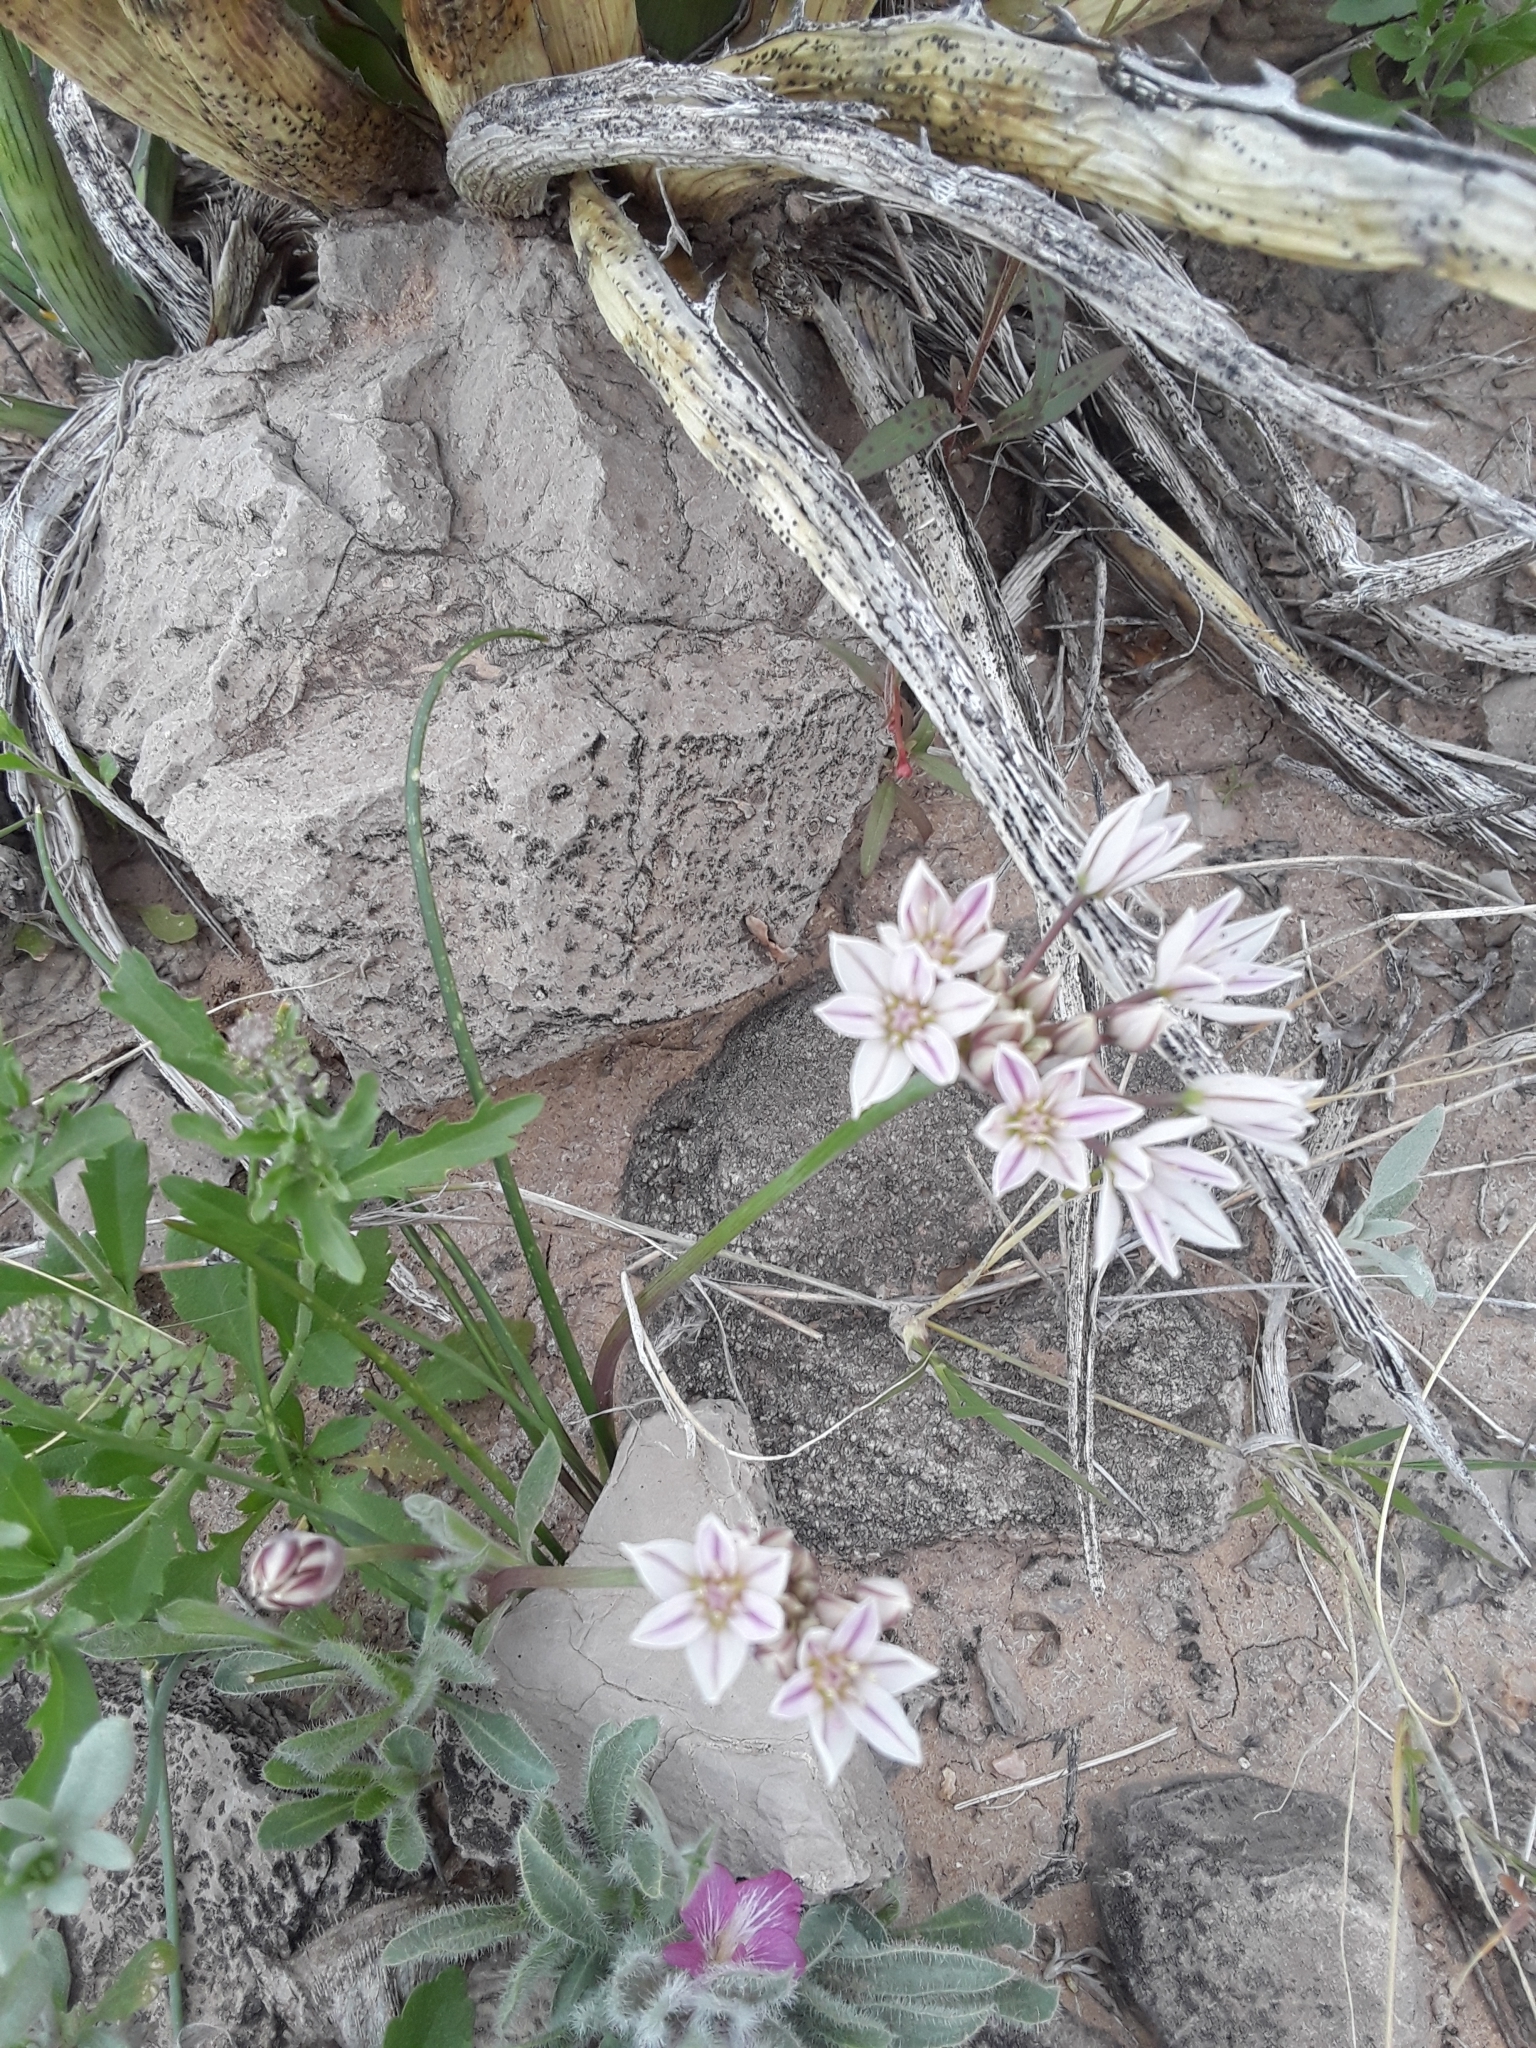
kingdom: Plantae
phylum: Tracheophyta
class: Liliopsida
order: Asparagales
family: Amaryllidaceae
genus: Allium
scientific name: Allium macropetalum
